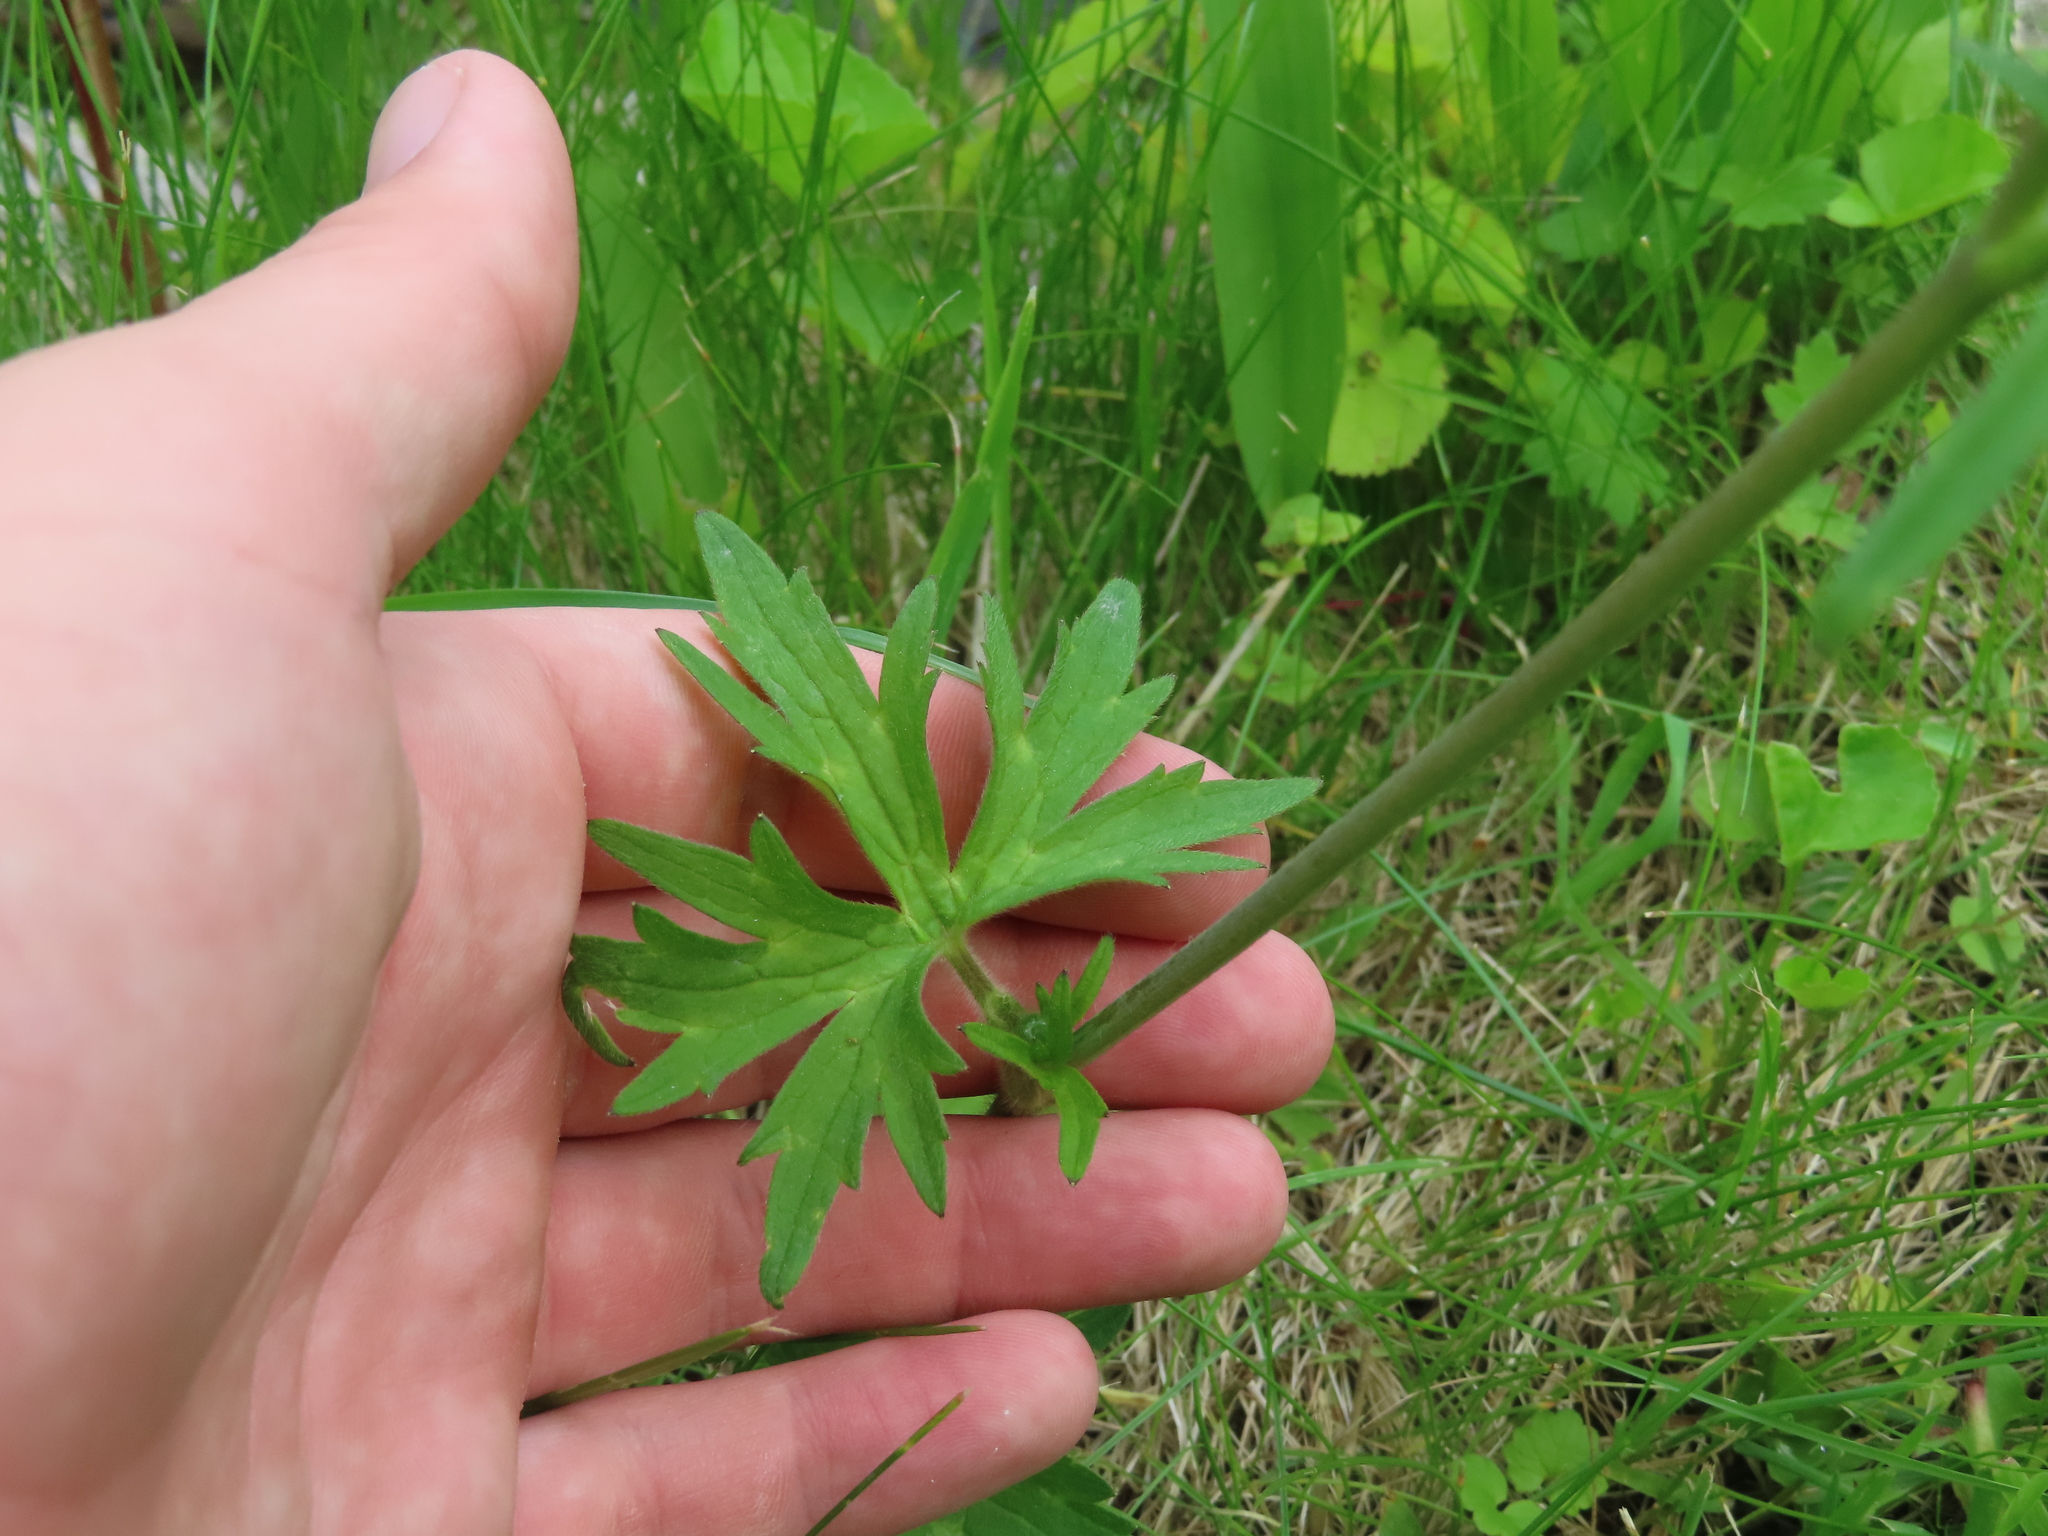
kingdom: Plantae
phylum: Tracheophyta
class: Magnoliopsida
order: Ranunculales
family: Ranunculaceae
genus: Ranunculus
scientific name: Ranunculus acris
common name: Meadow buttercup
